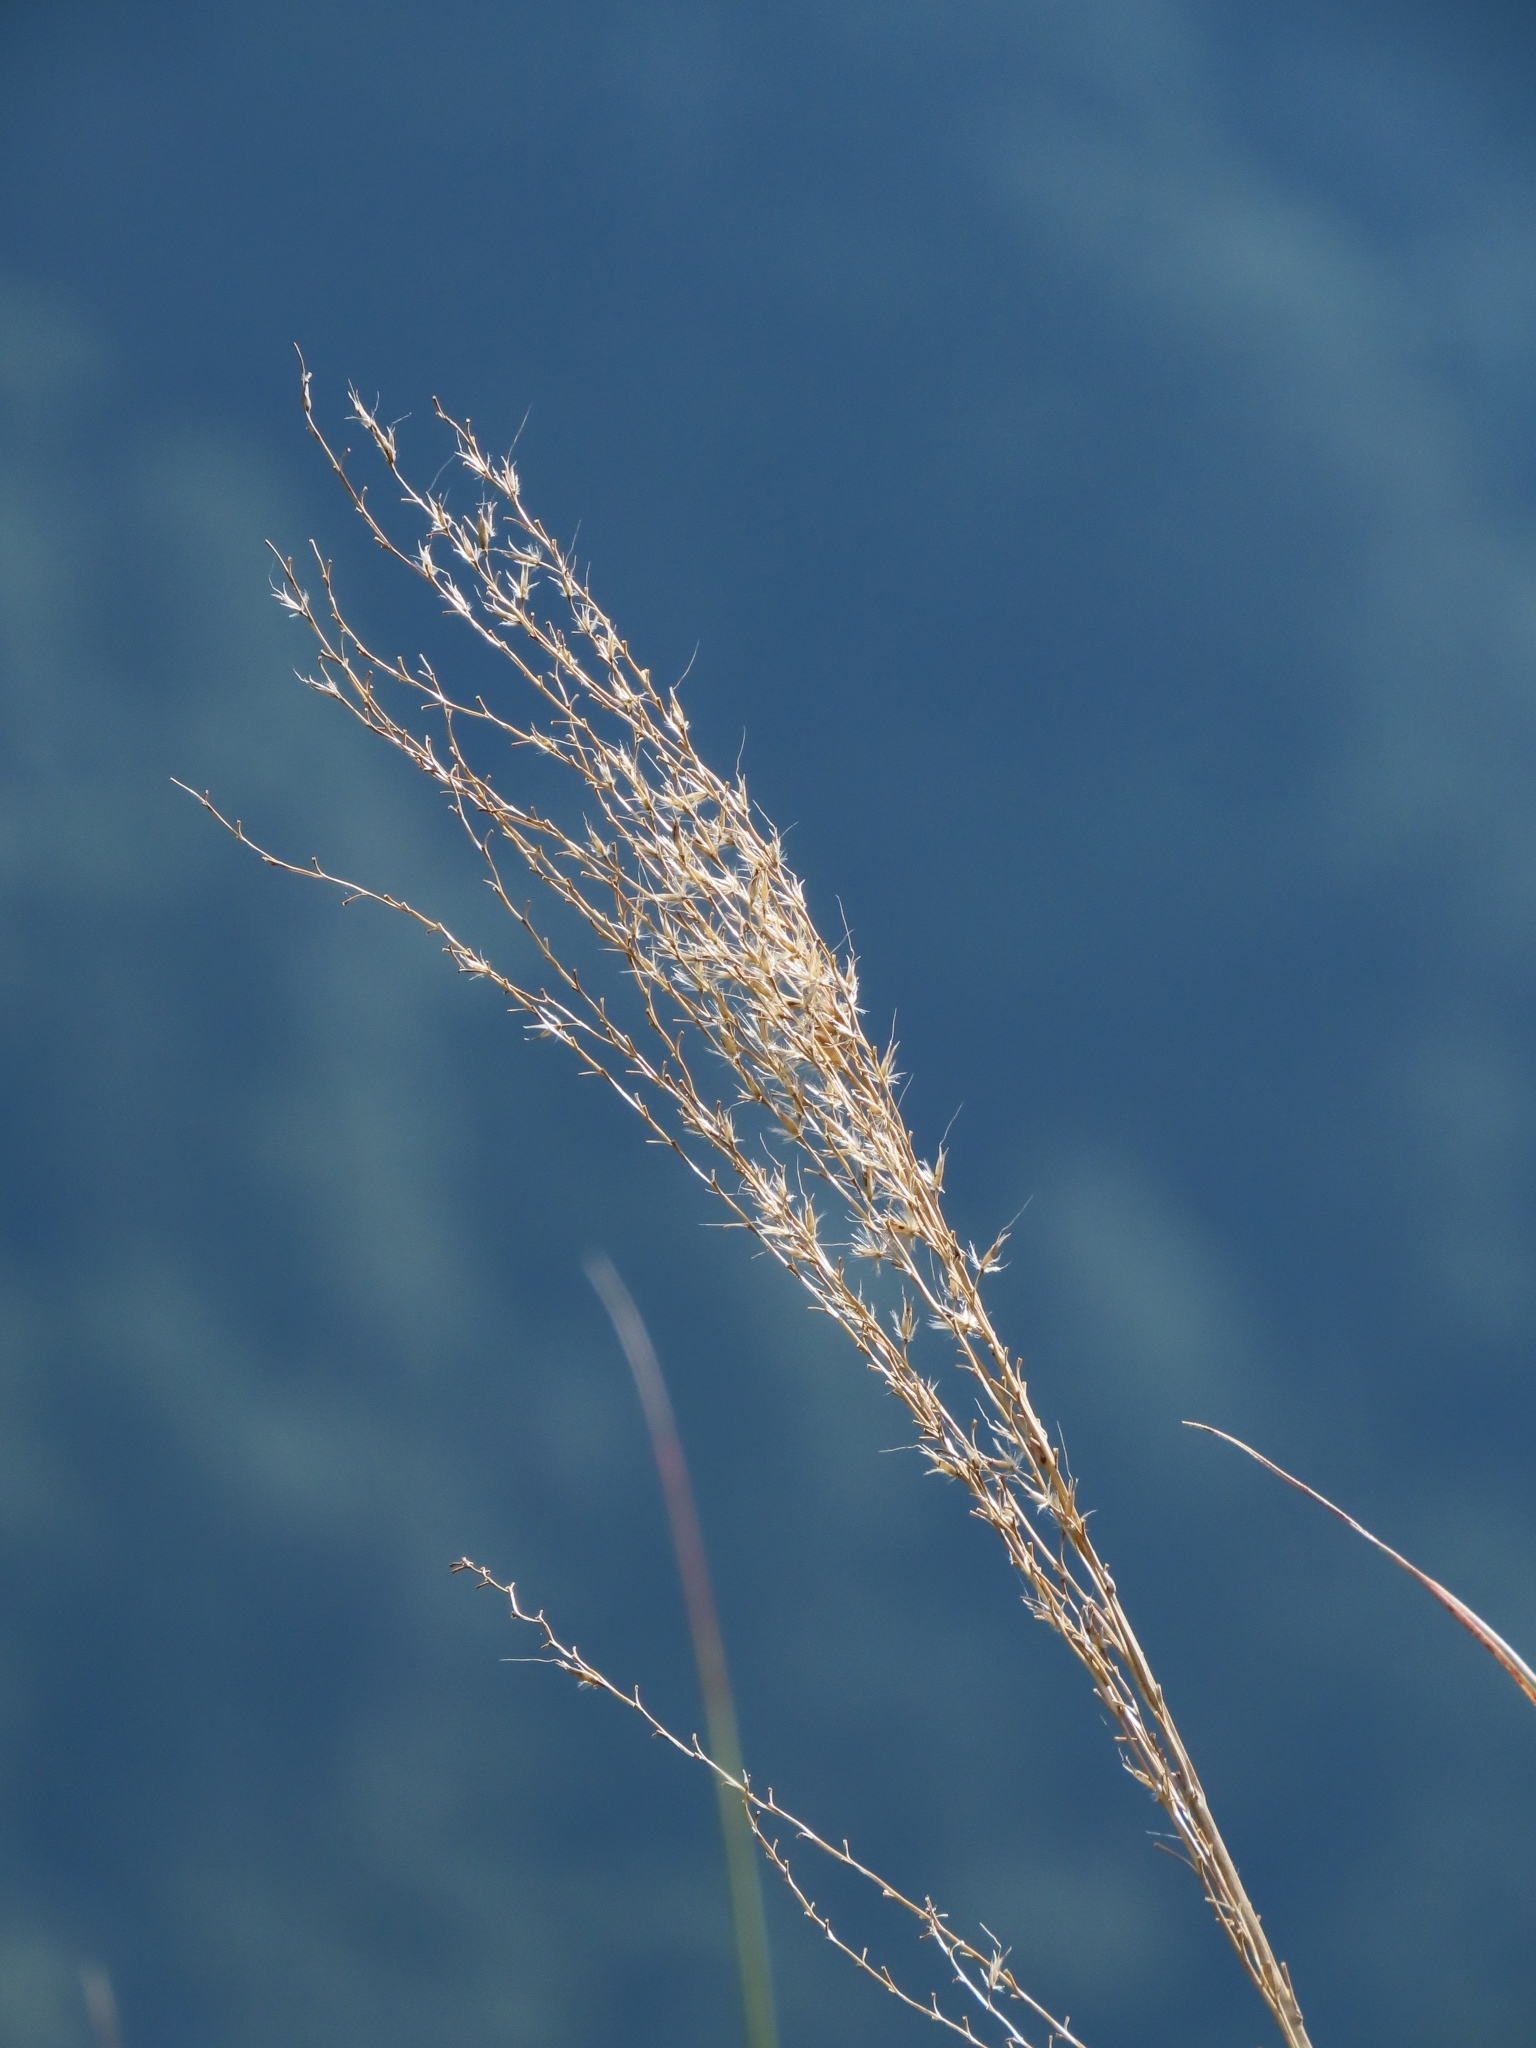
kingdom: Plantae
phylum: Tracheophyta
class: Liliopsida
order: Poales
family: Poaceae
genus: Miscanthus
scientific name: Miscanthus sinensis
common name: Chinese silvergrass
